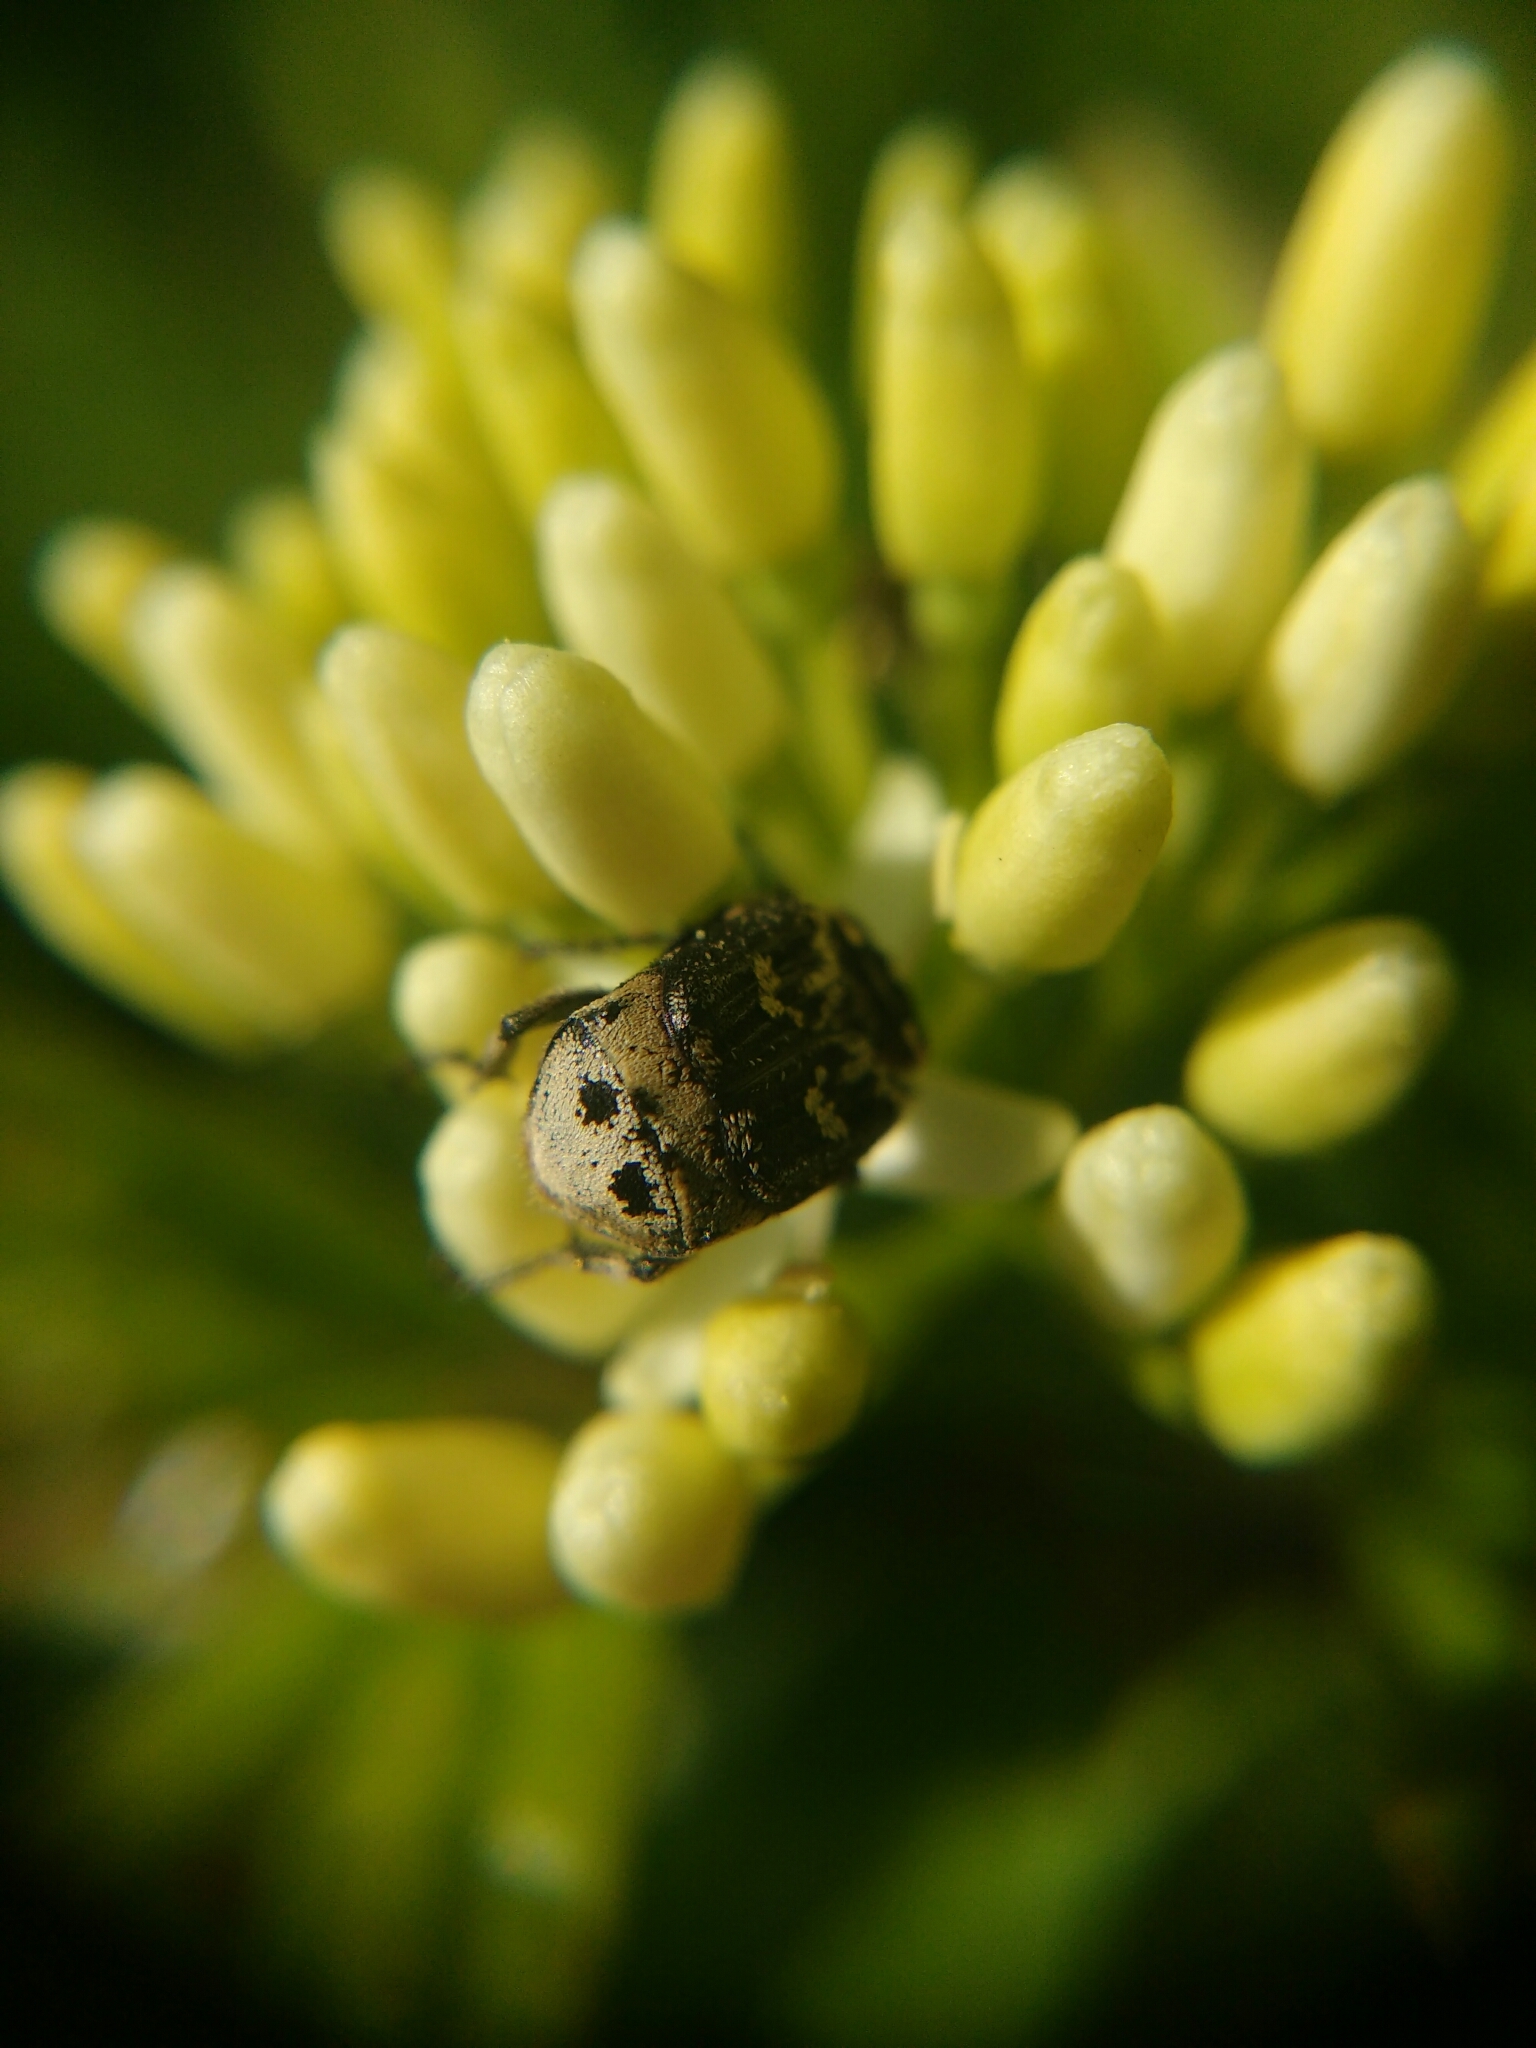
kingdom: Animalia
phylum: Arthropoda
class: Insecta
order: Coleoptera
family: Scarabaeidae
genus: Valgus
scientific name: Valgus hemipterus
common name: Bug flower chafer
